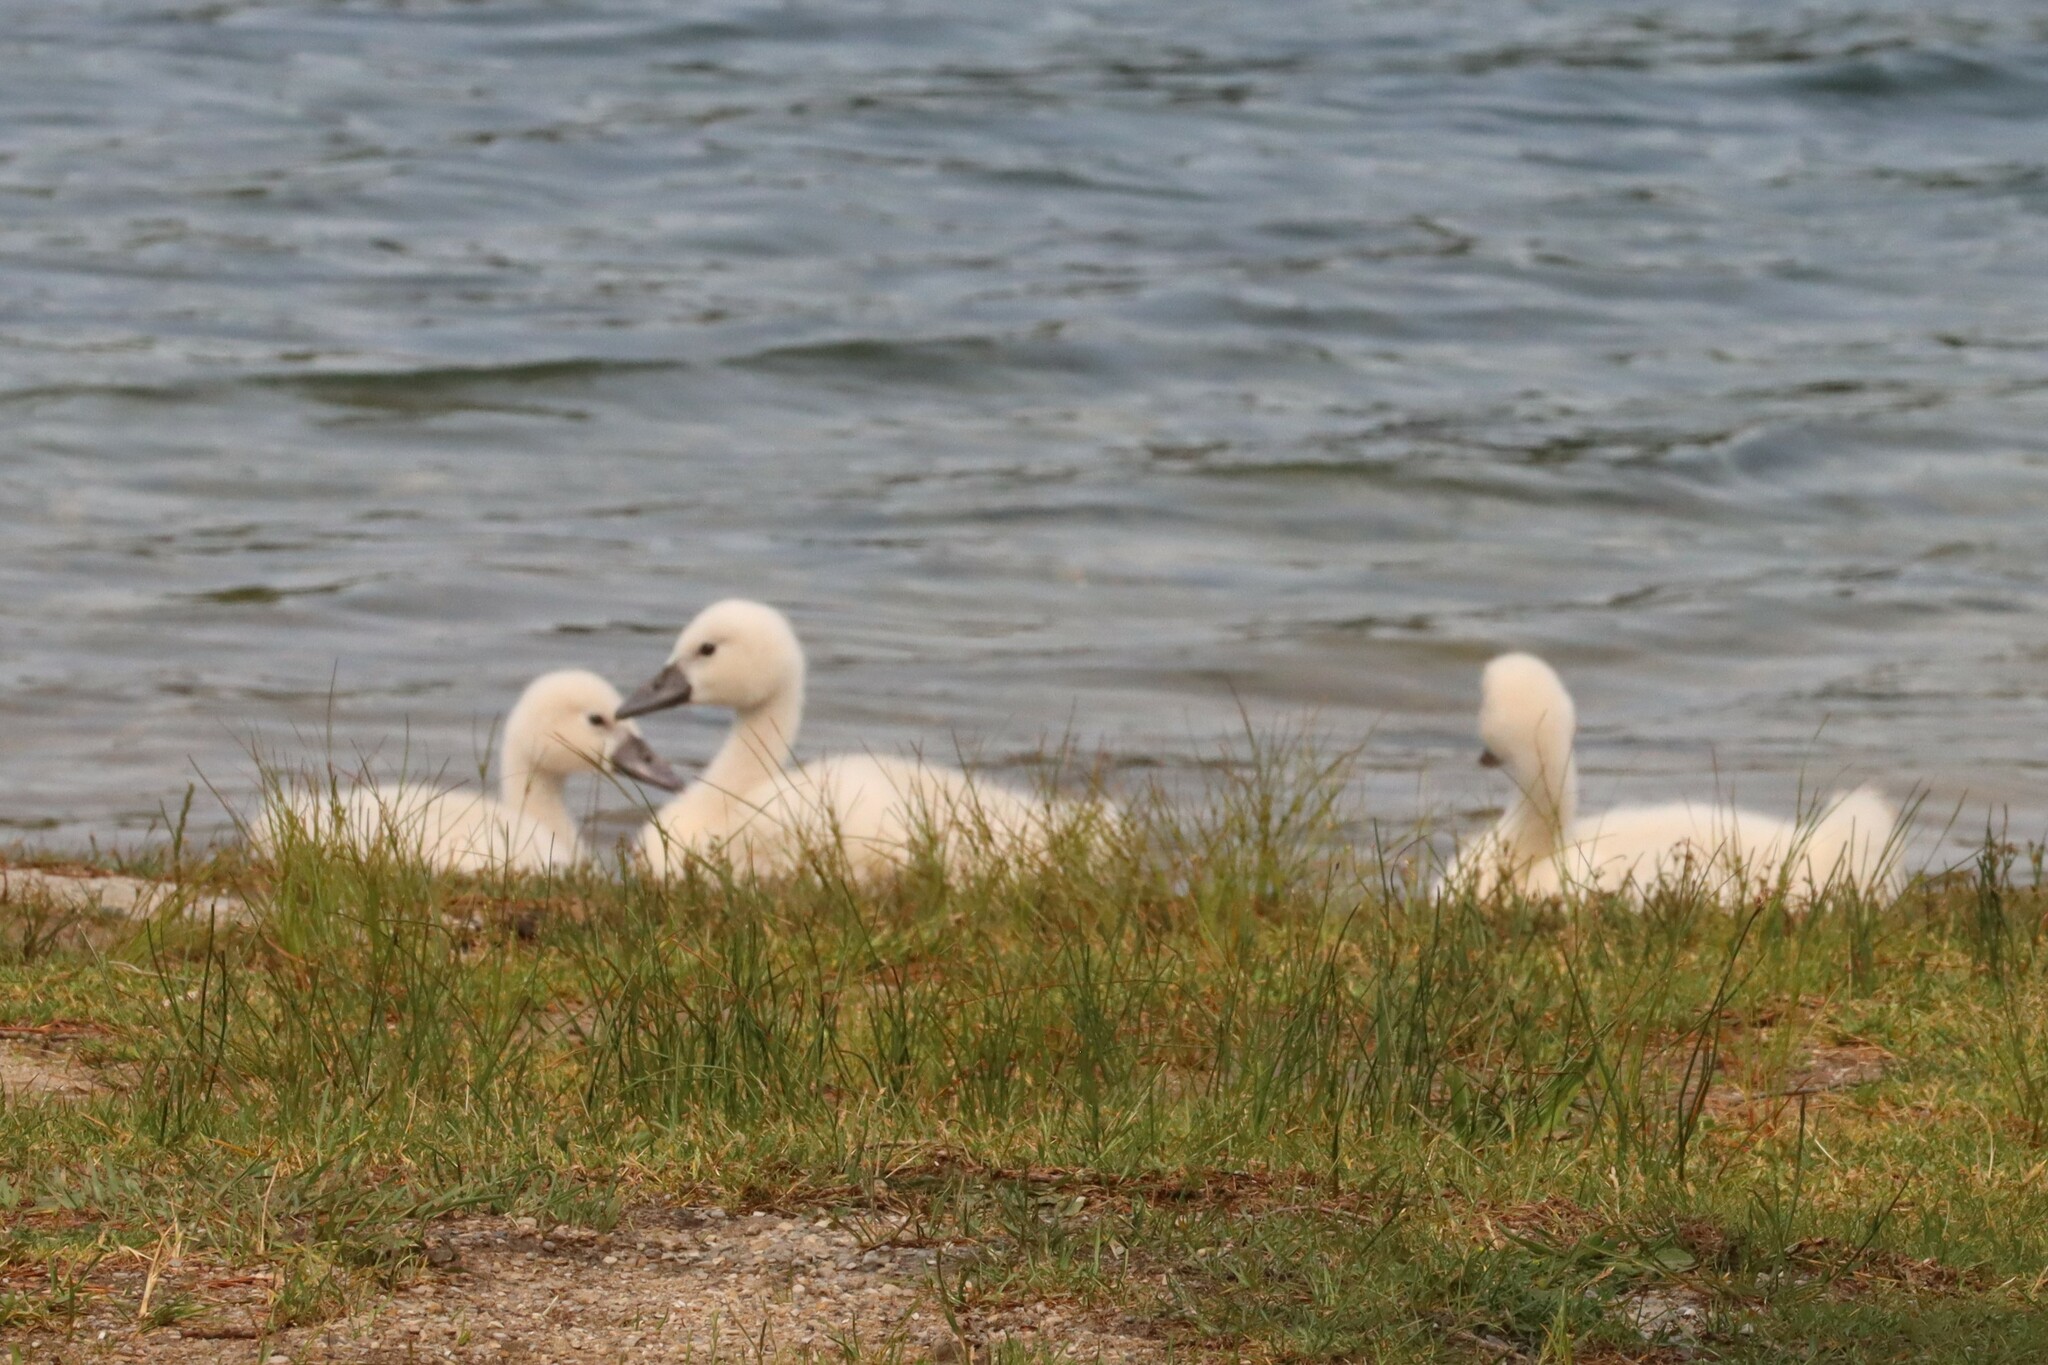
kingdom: Animalia
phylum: Chordata
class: Aves
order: Anseriformes
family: Anatidae
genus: Cygnus
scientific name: Cygnus olor
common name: Mute swan
